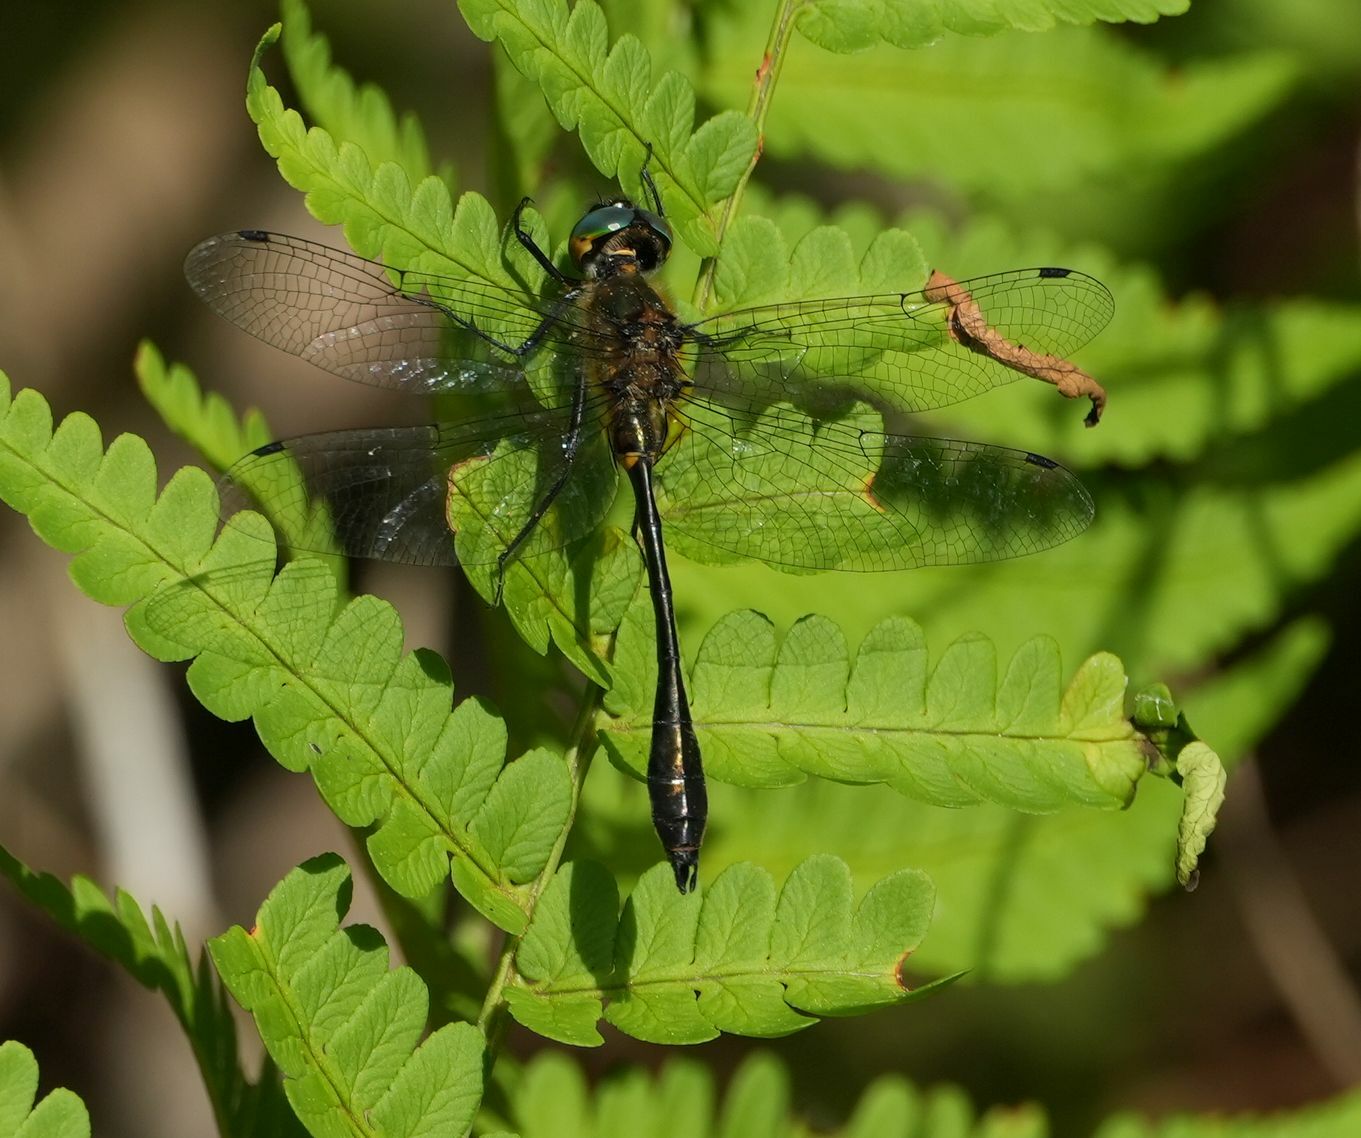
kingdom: Animalia
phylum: Arthropoda
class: Insecta
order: Odonata
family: Corduliidae
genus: Dorocordulia
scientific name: Dorocordulia libera
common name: Racket-tailed emerald
